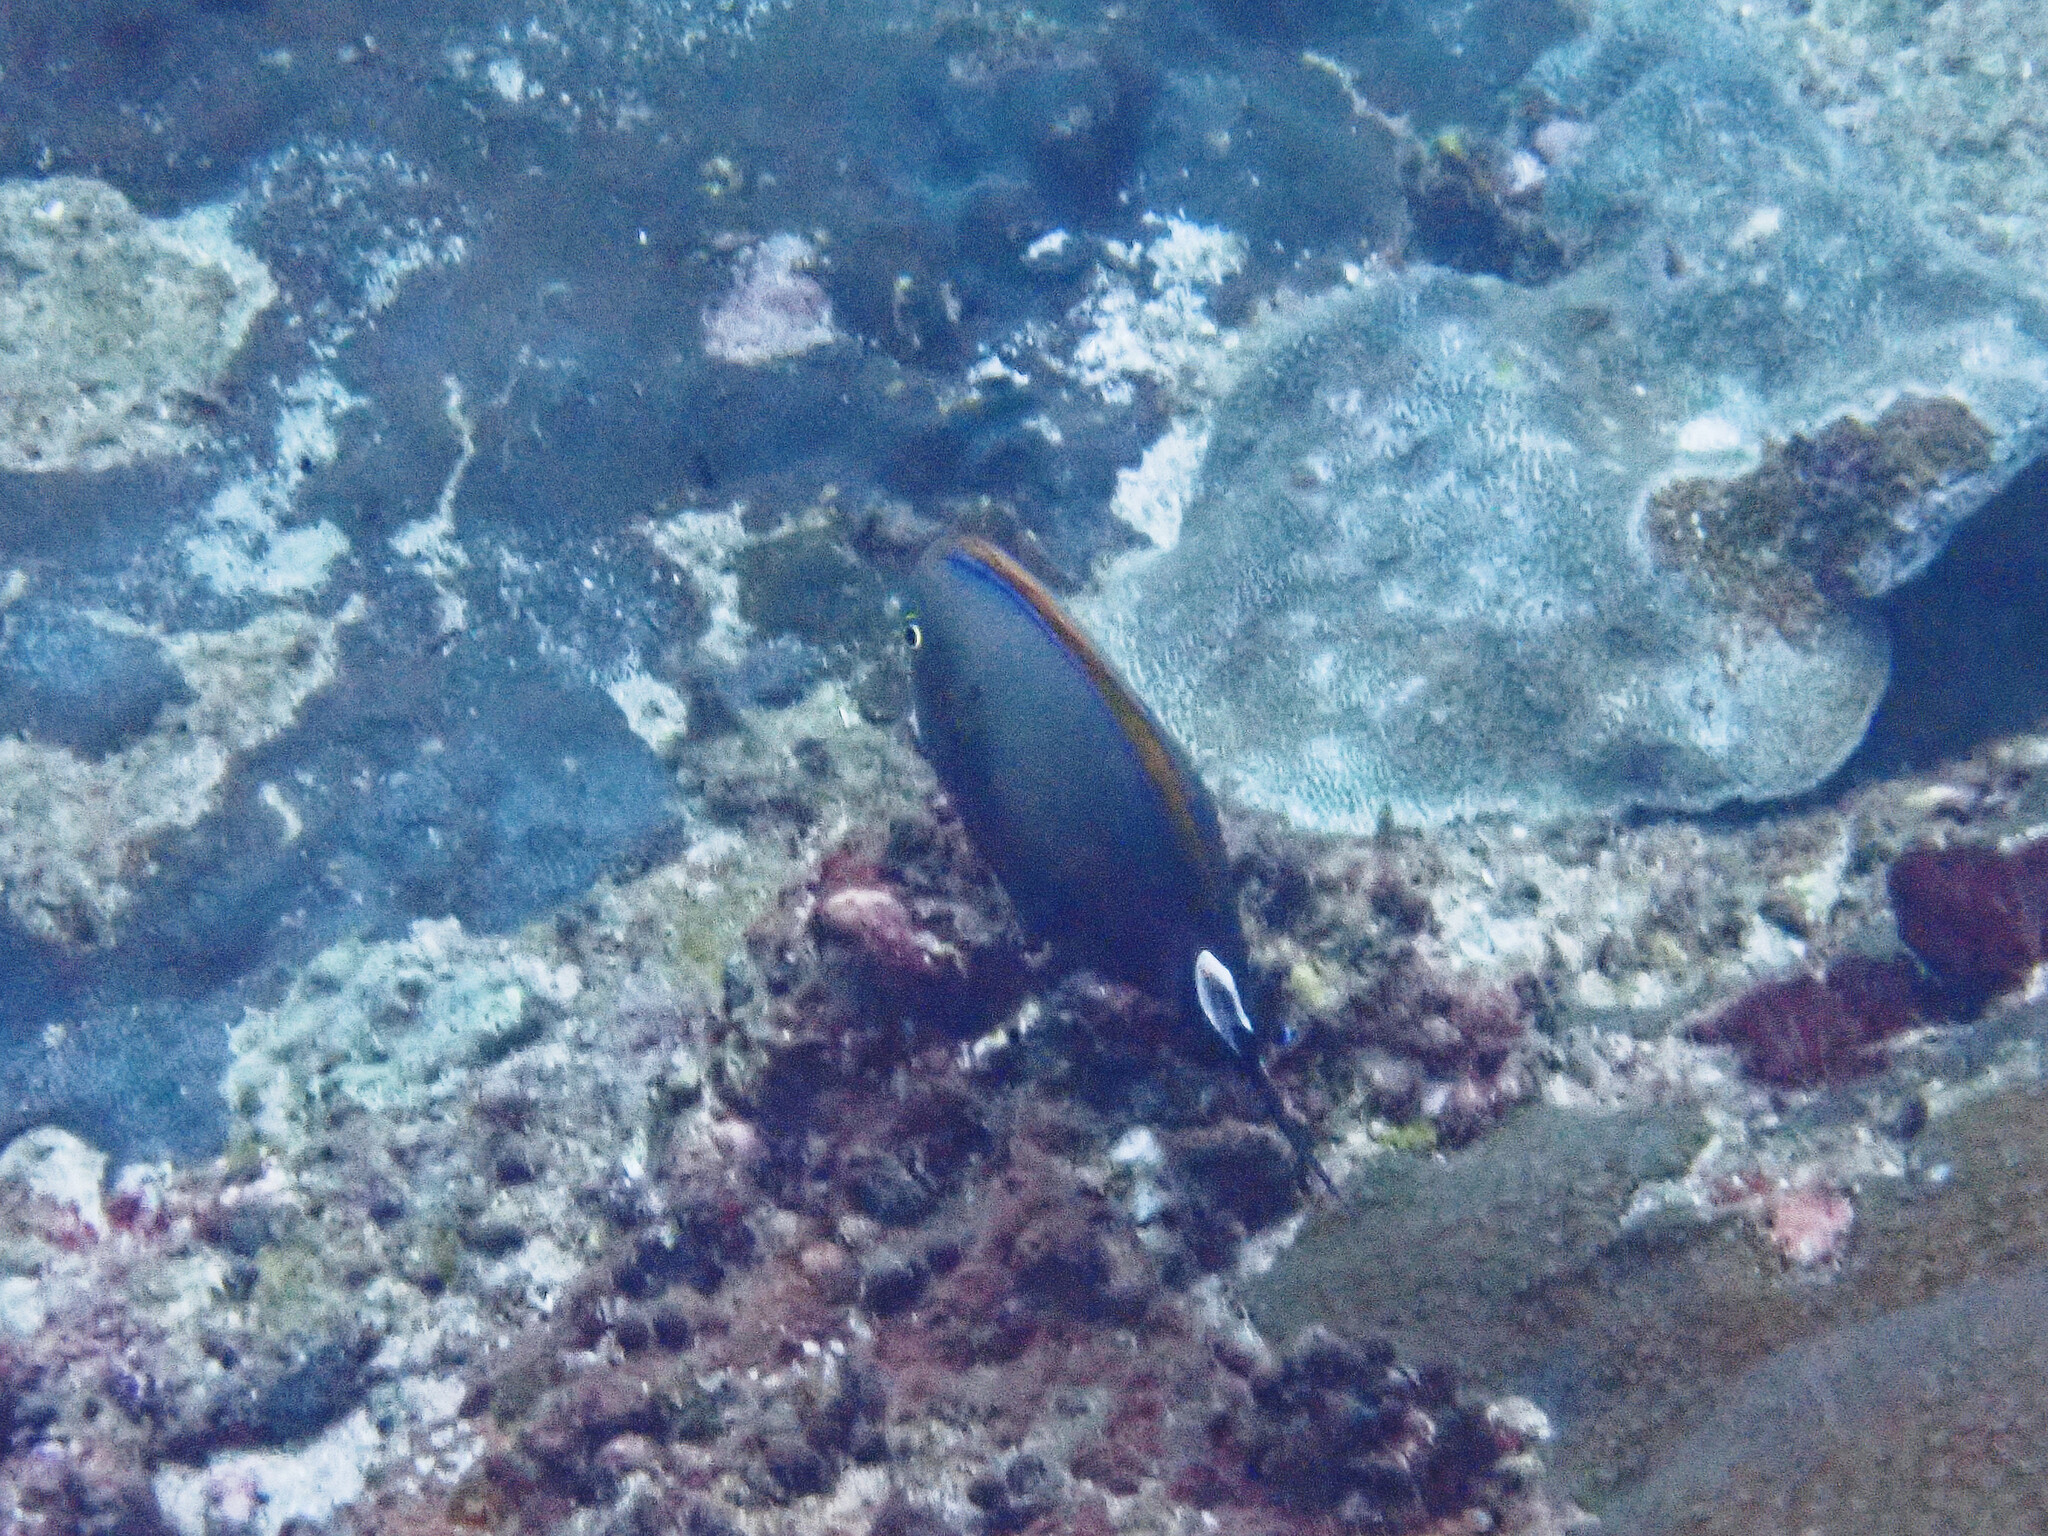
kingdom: Animalia
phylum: Chordata
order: Perciformes
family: Acanthuridae
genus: Acanthurus
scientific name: Acanthurus bariene
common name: Bariene surgeonfish
